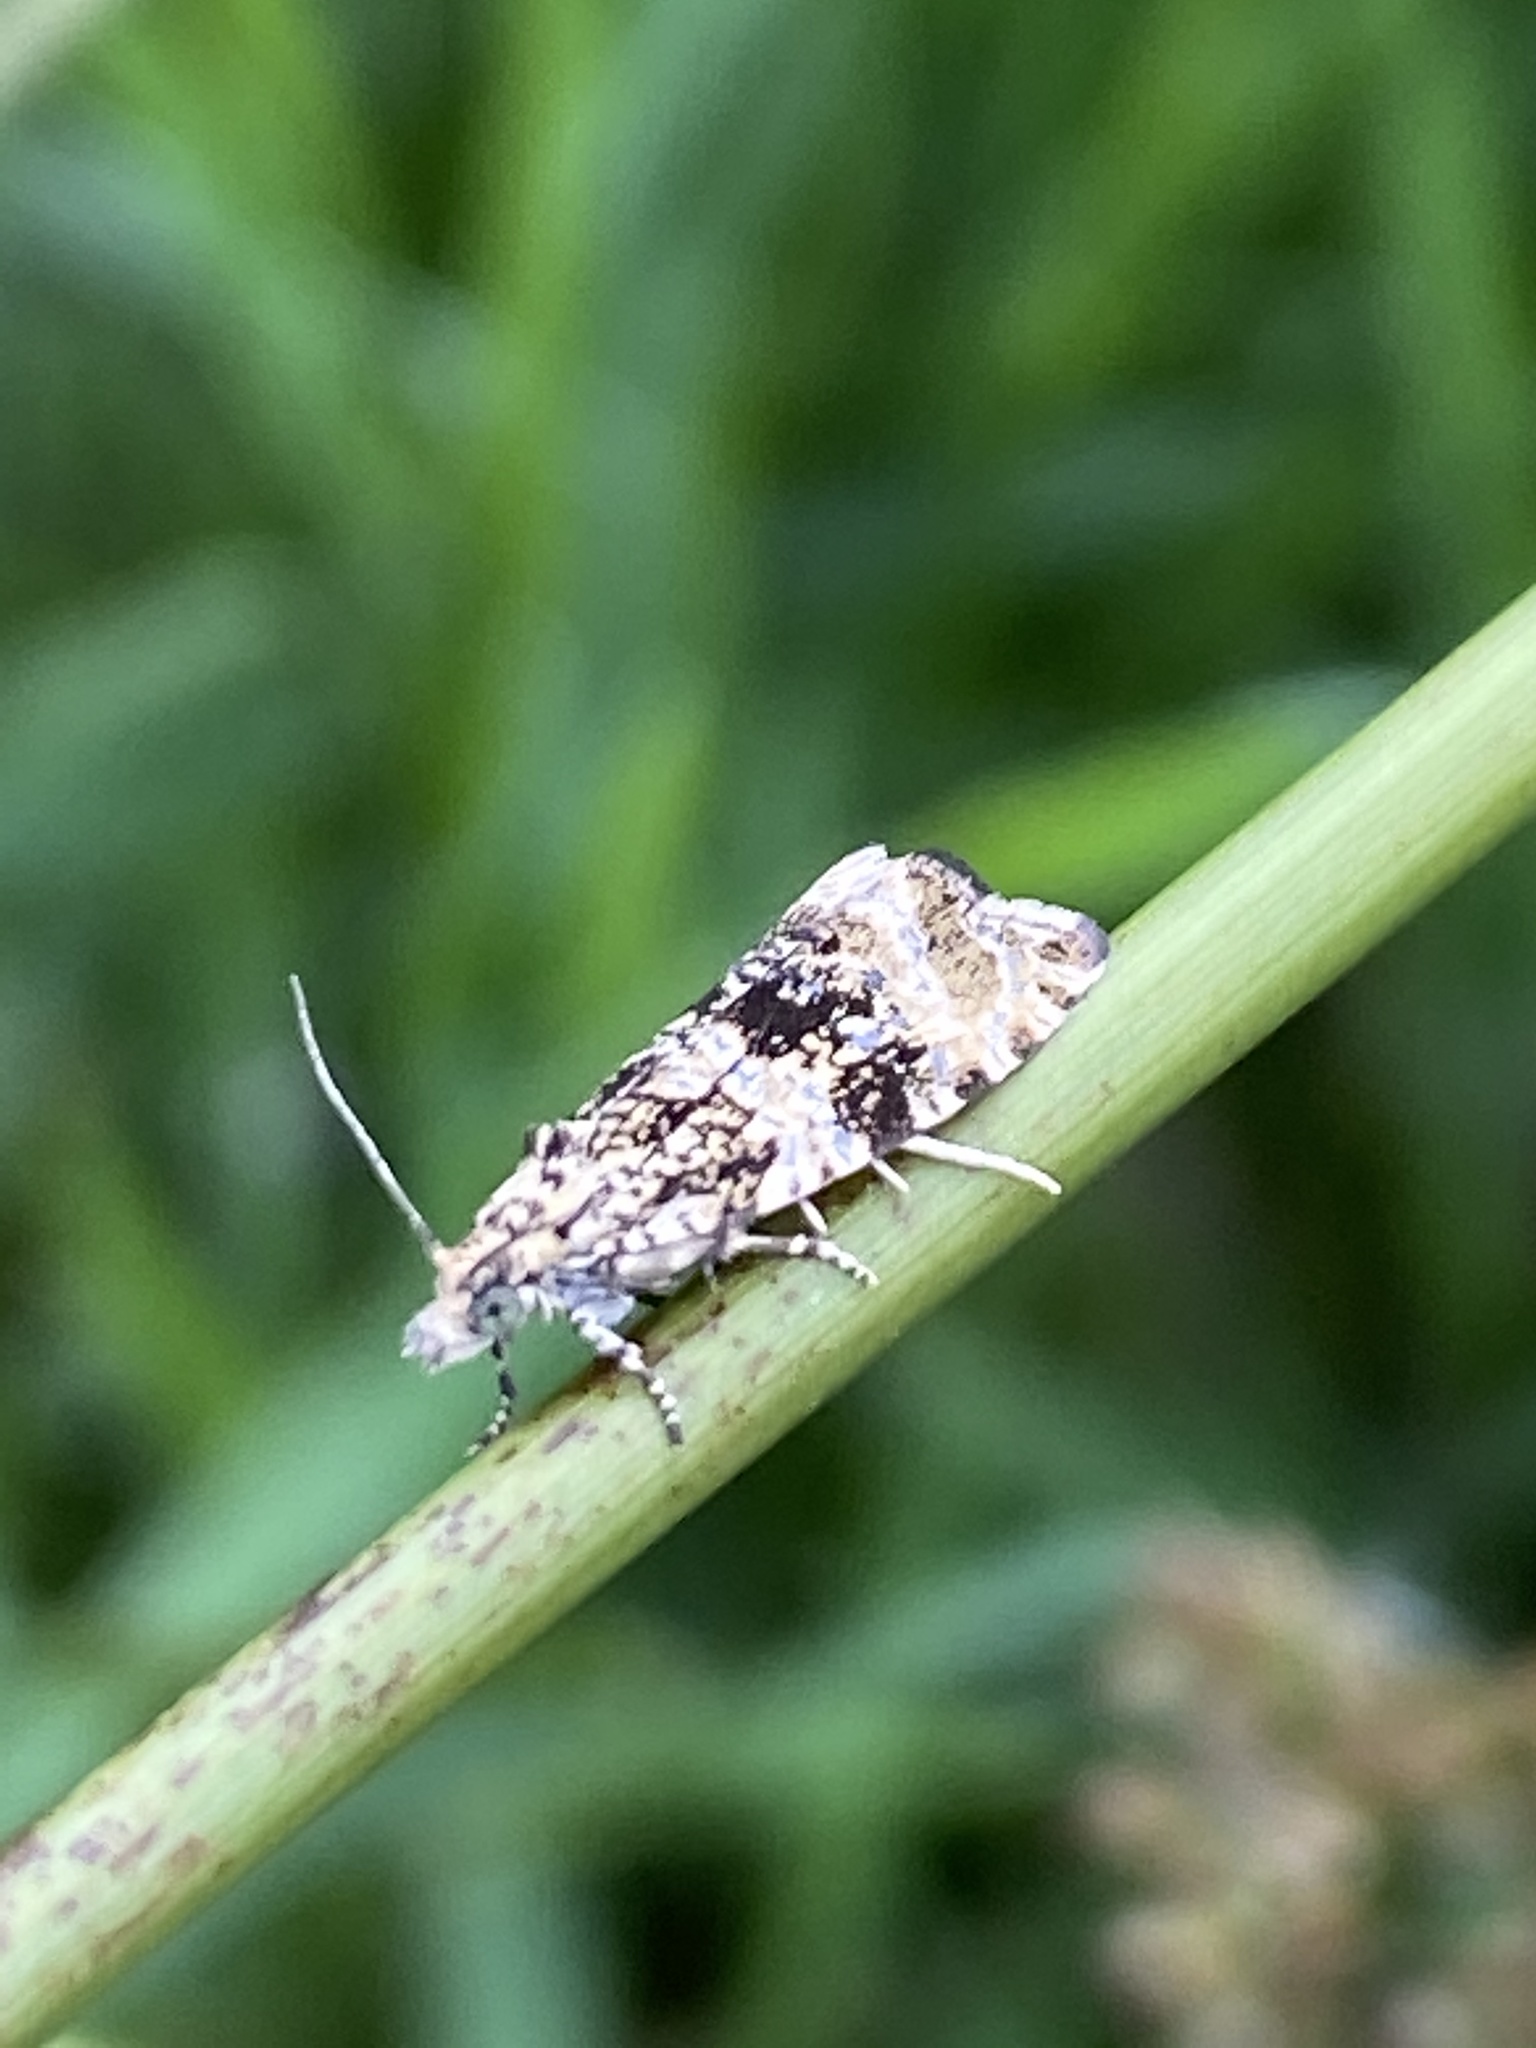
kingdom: Animalia
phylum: Arthropoda
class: Insecta
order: Lepidoptera
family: Tortricidae
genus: Syricoris
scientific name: Syricoris lacunana
